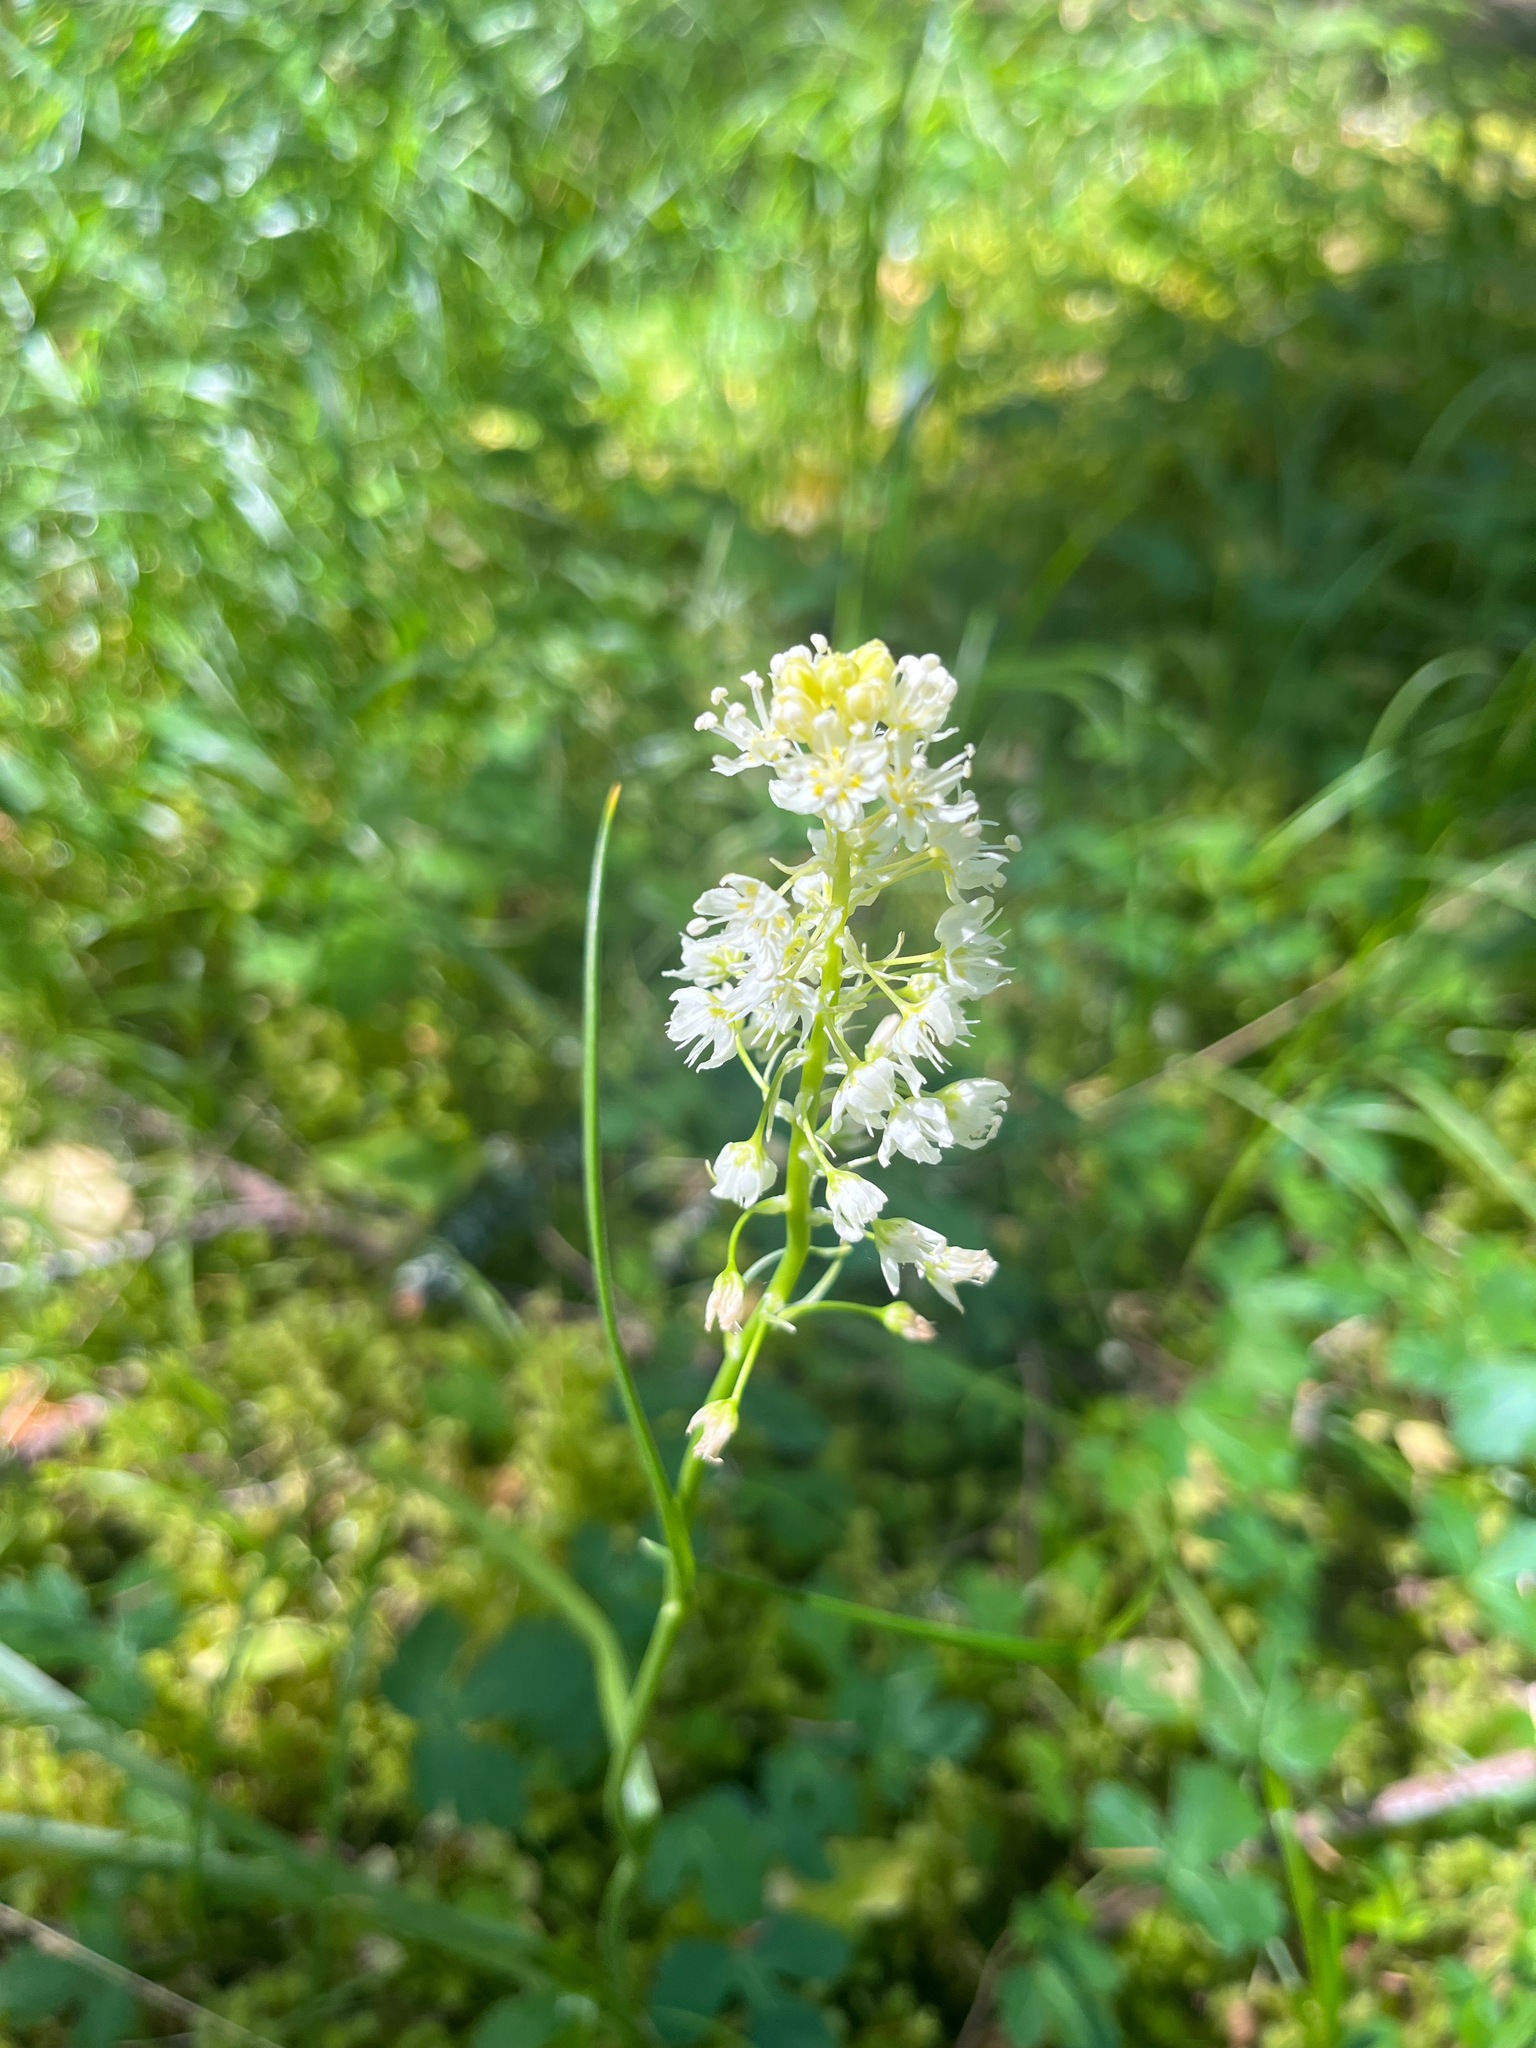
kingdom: Plantae
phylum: Tracheophyta
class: Liliopsida
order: Liliales
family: Melanthiaceae
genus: Toxicoscordion
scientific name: Toxicoscordion venenosum
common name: Meadow death camas
